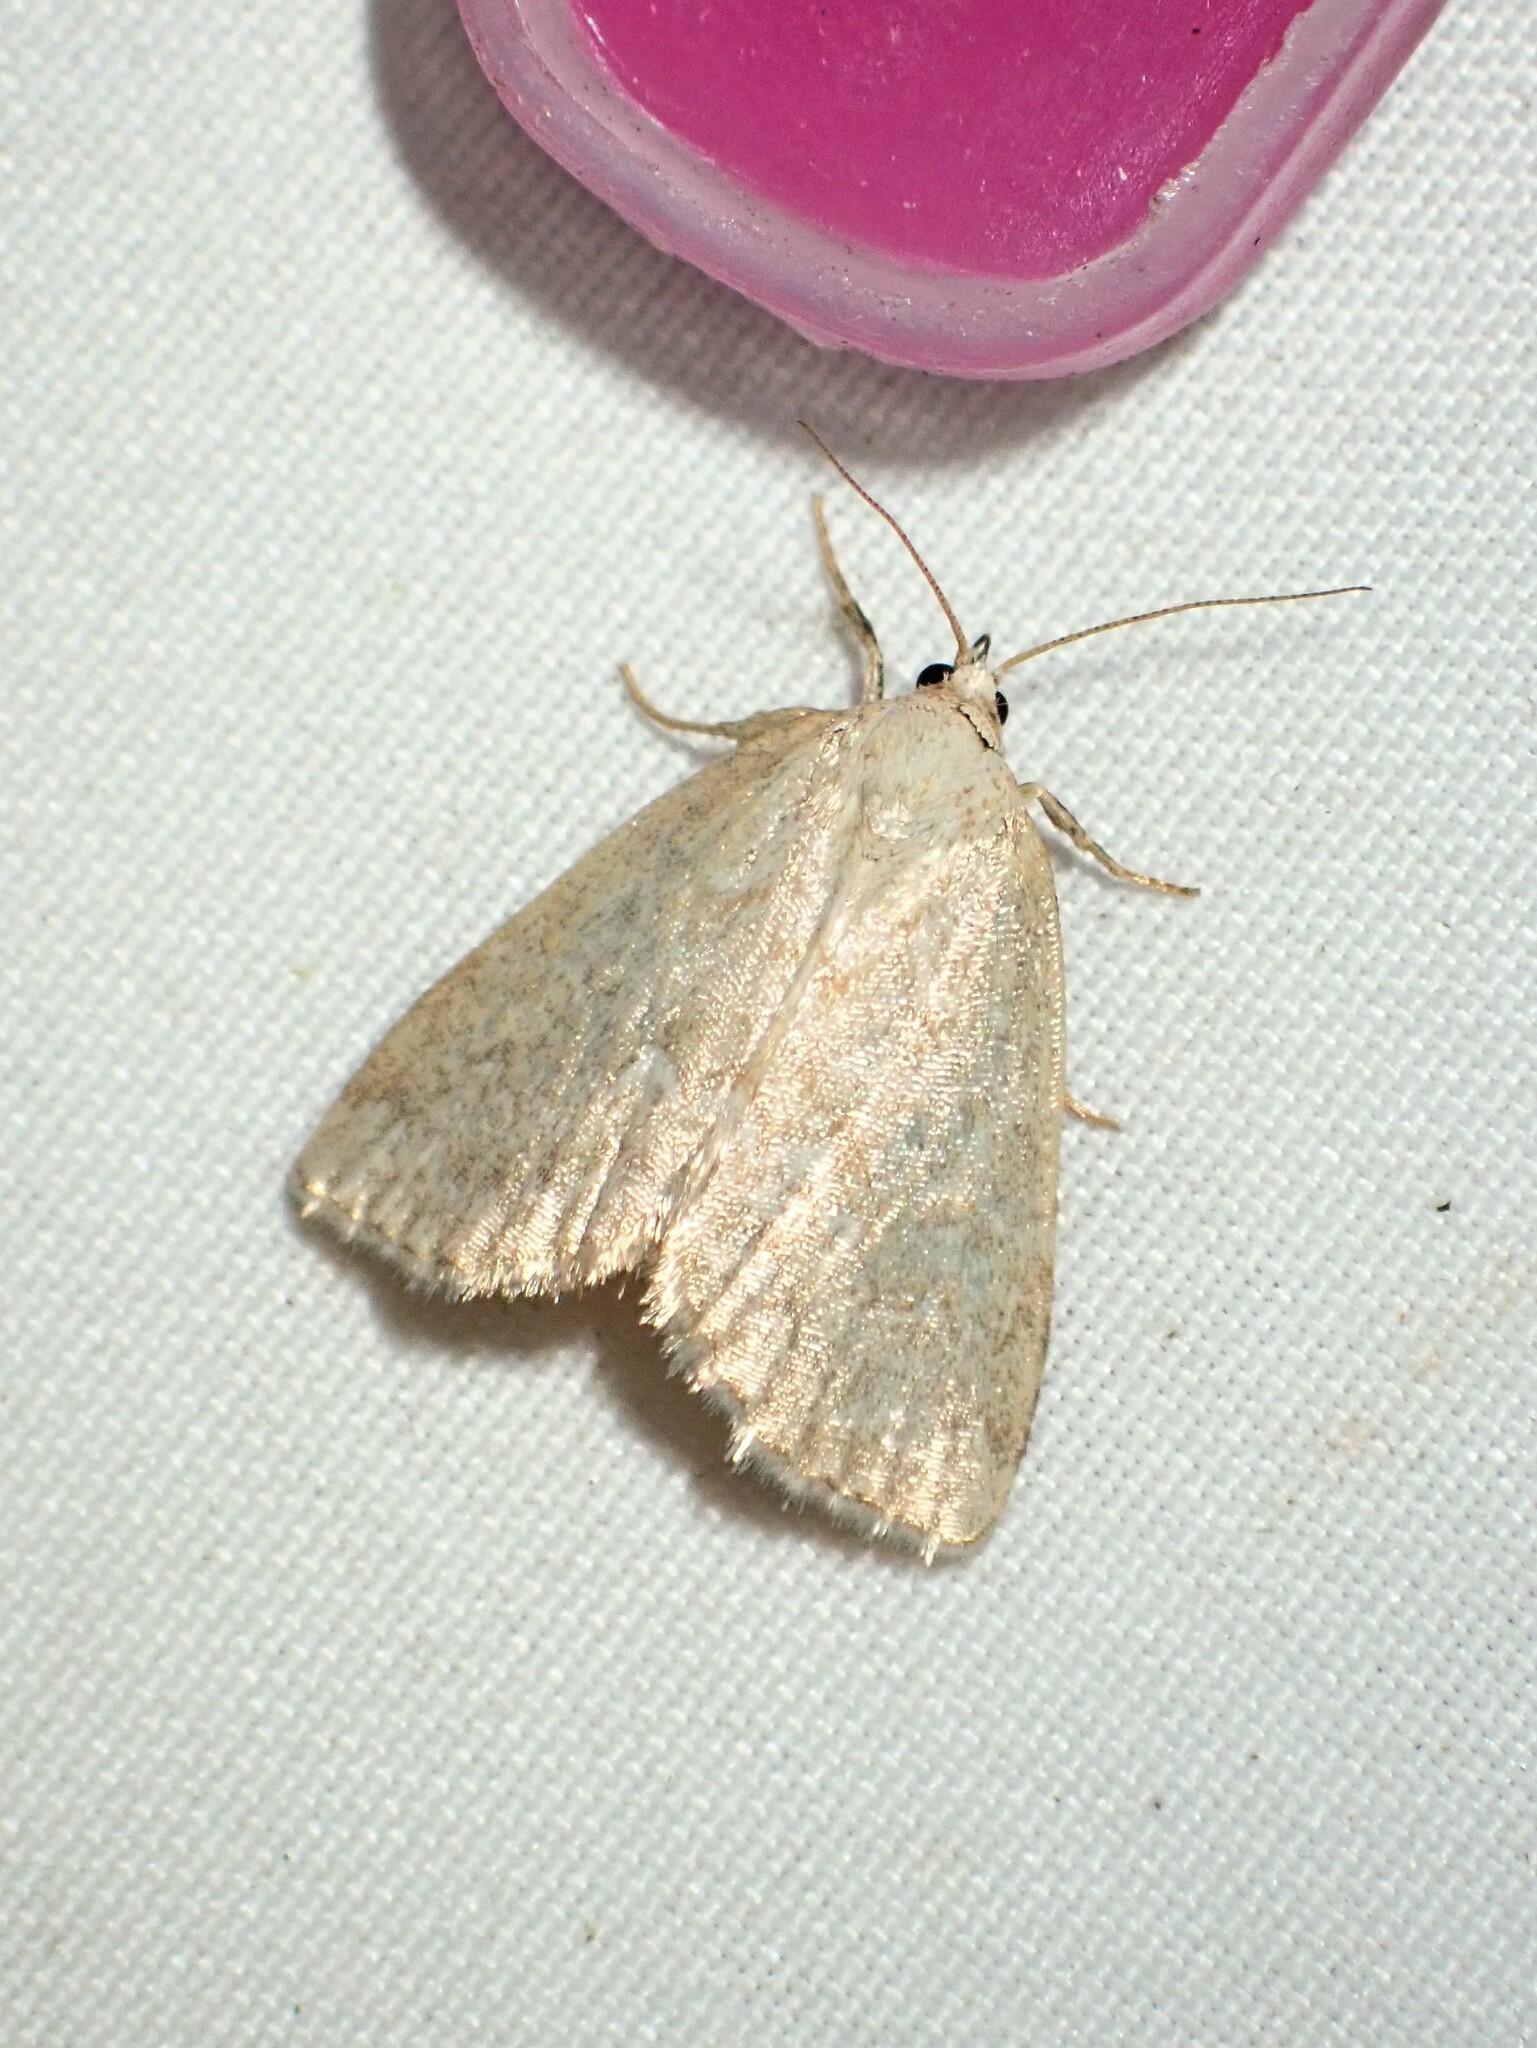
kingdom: Animalia
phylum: Arthropoda
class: Insecta
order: Lepidoptera
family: Noctuidae
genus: Protodeltote
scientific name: Protodeltote albidula
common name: Pale glyph
